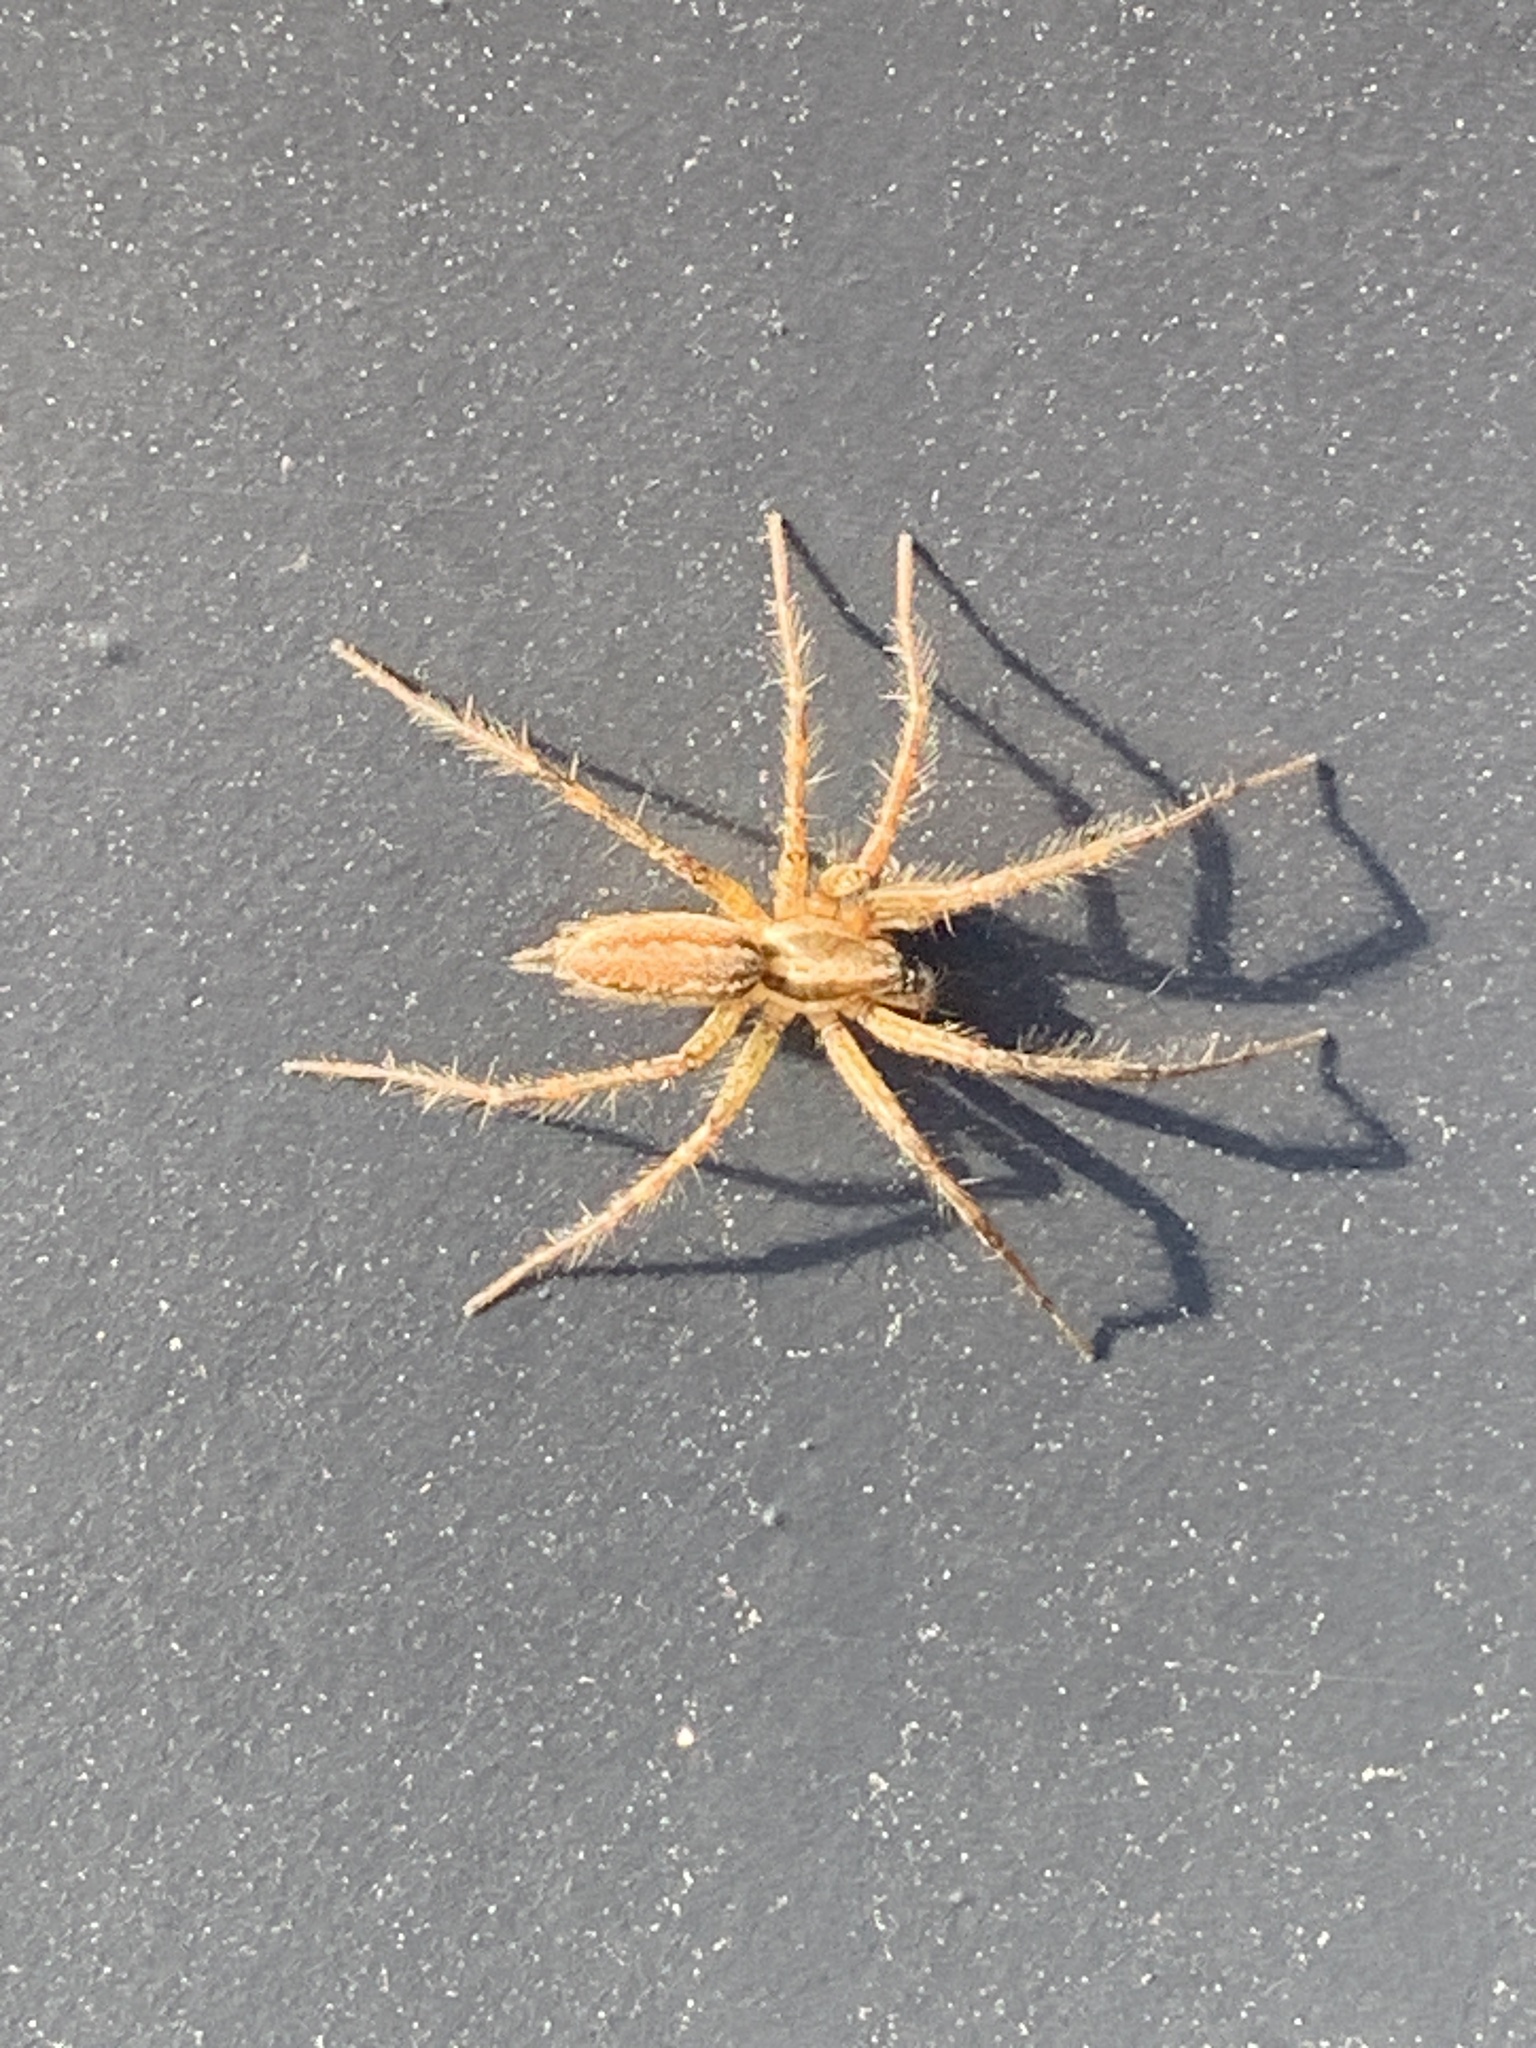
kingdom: Animalia
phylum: Arthropoda
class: Arachnida
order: Araneae
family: Agelenidae
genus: Agelenopsis
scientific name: Agelenopsis
